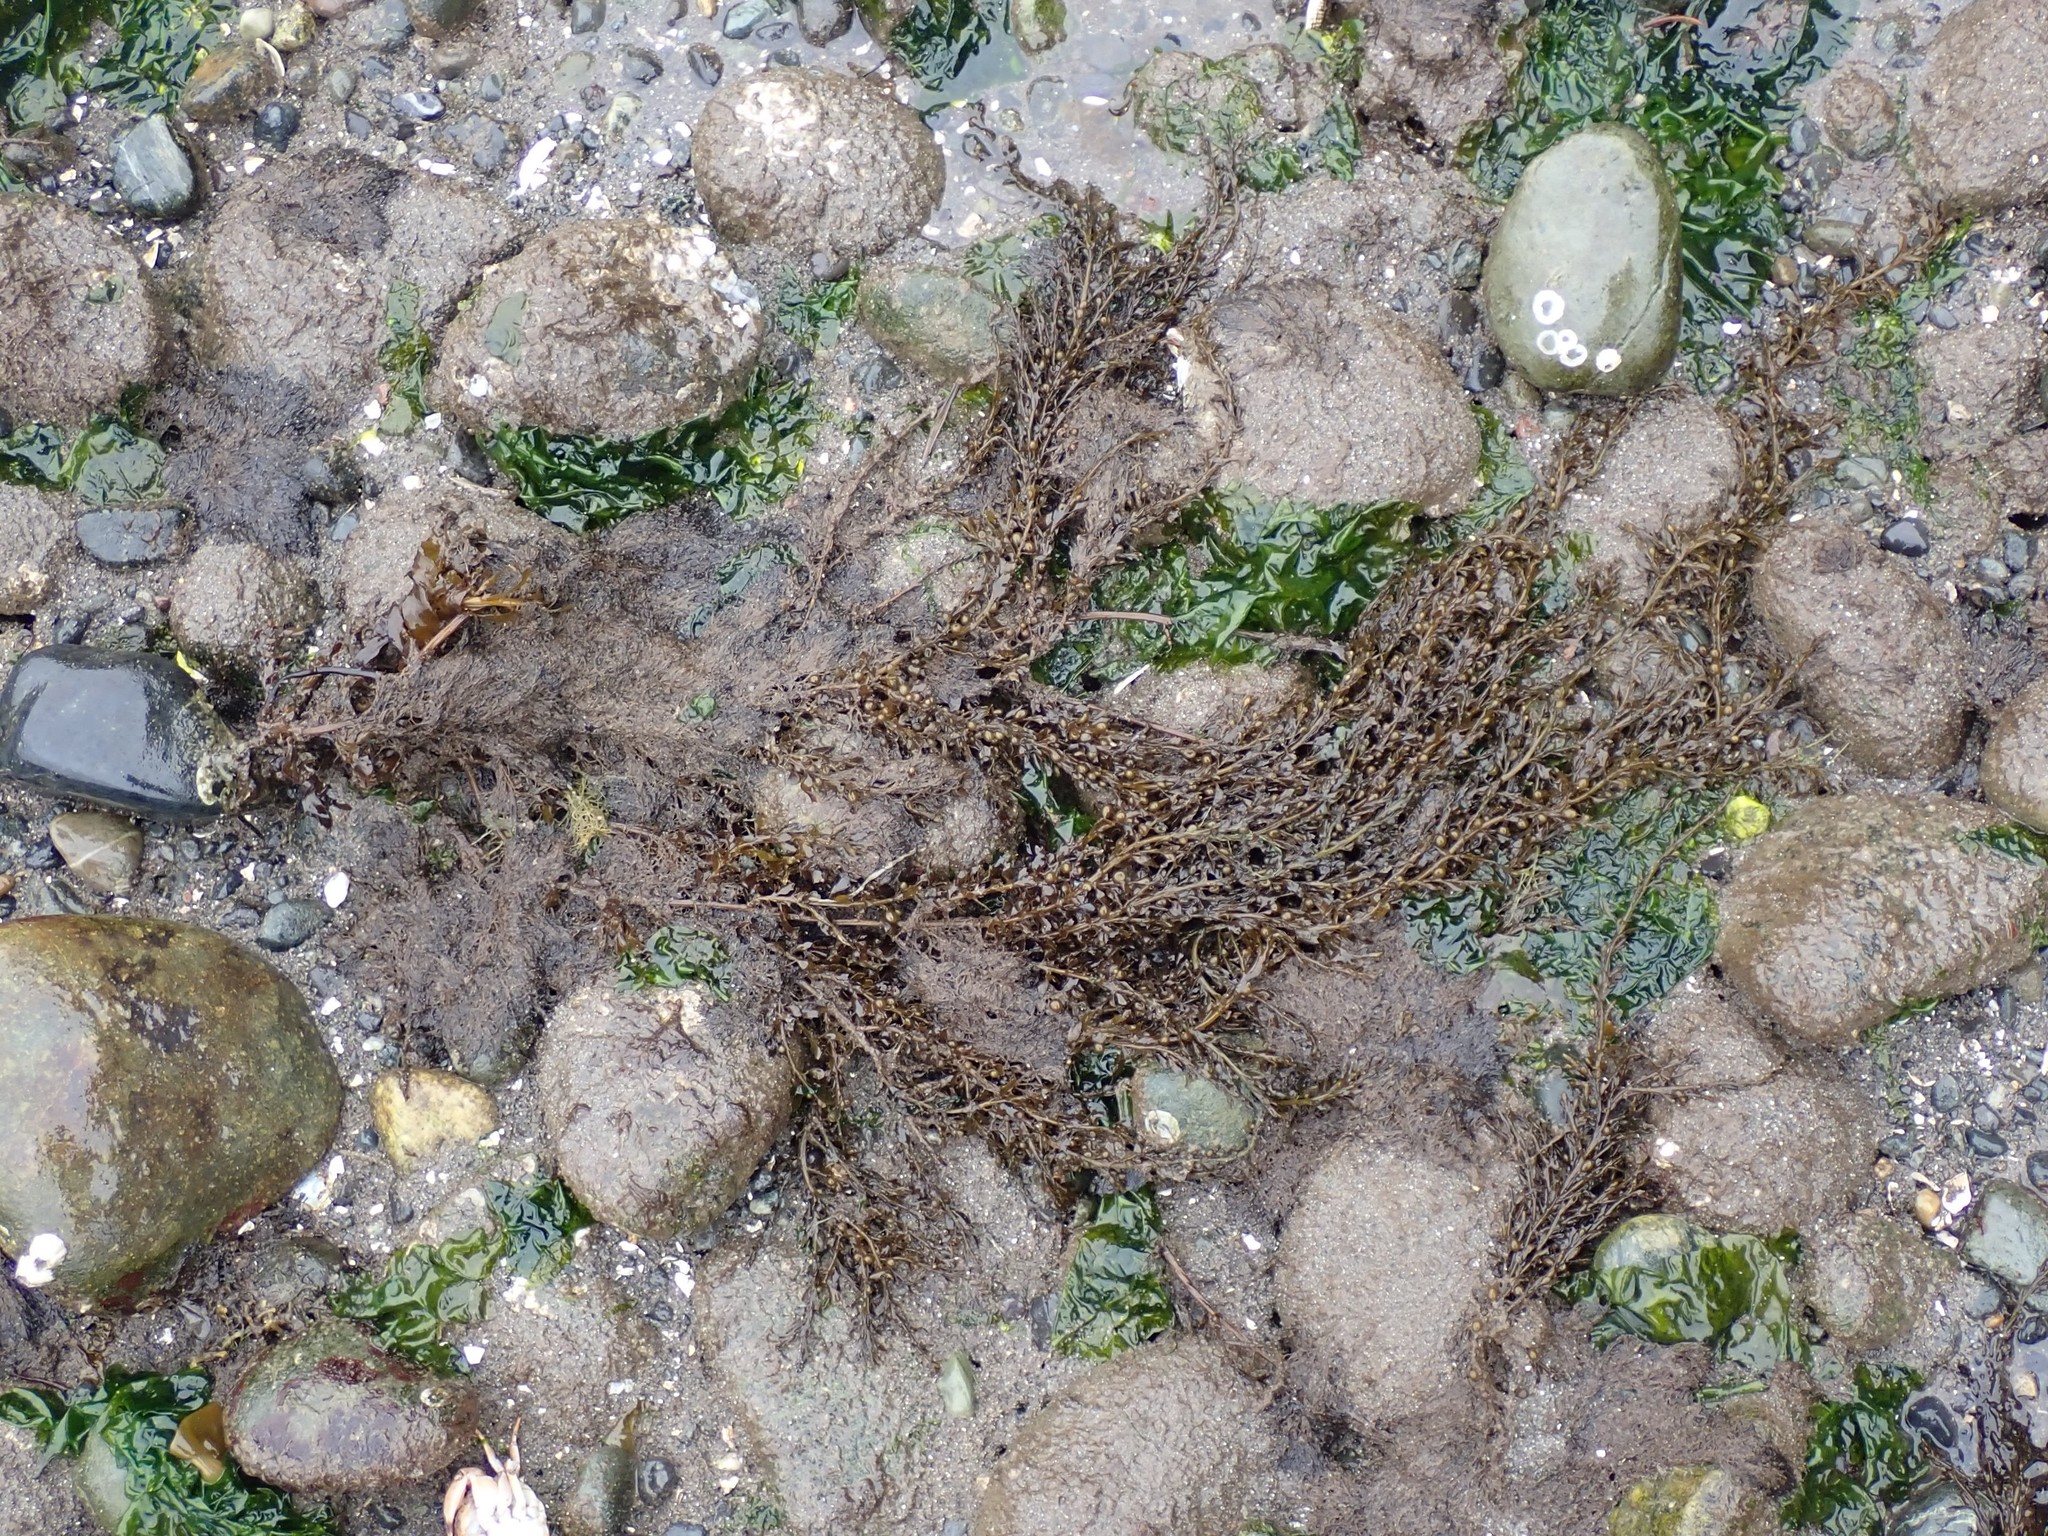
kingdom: Chromista
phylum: Ochrophyta
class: Phaeophyceae
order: Fucales
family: Sargassaceae
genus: Sargassum
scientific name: Sargassum muticum
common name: Japweed
